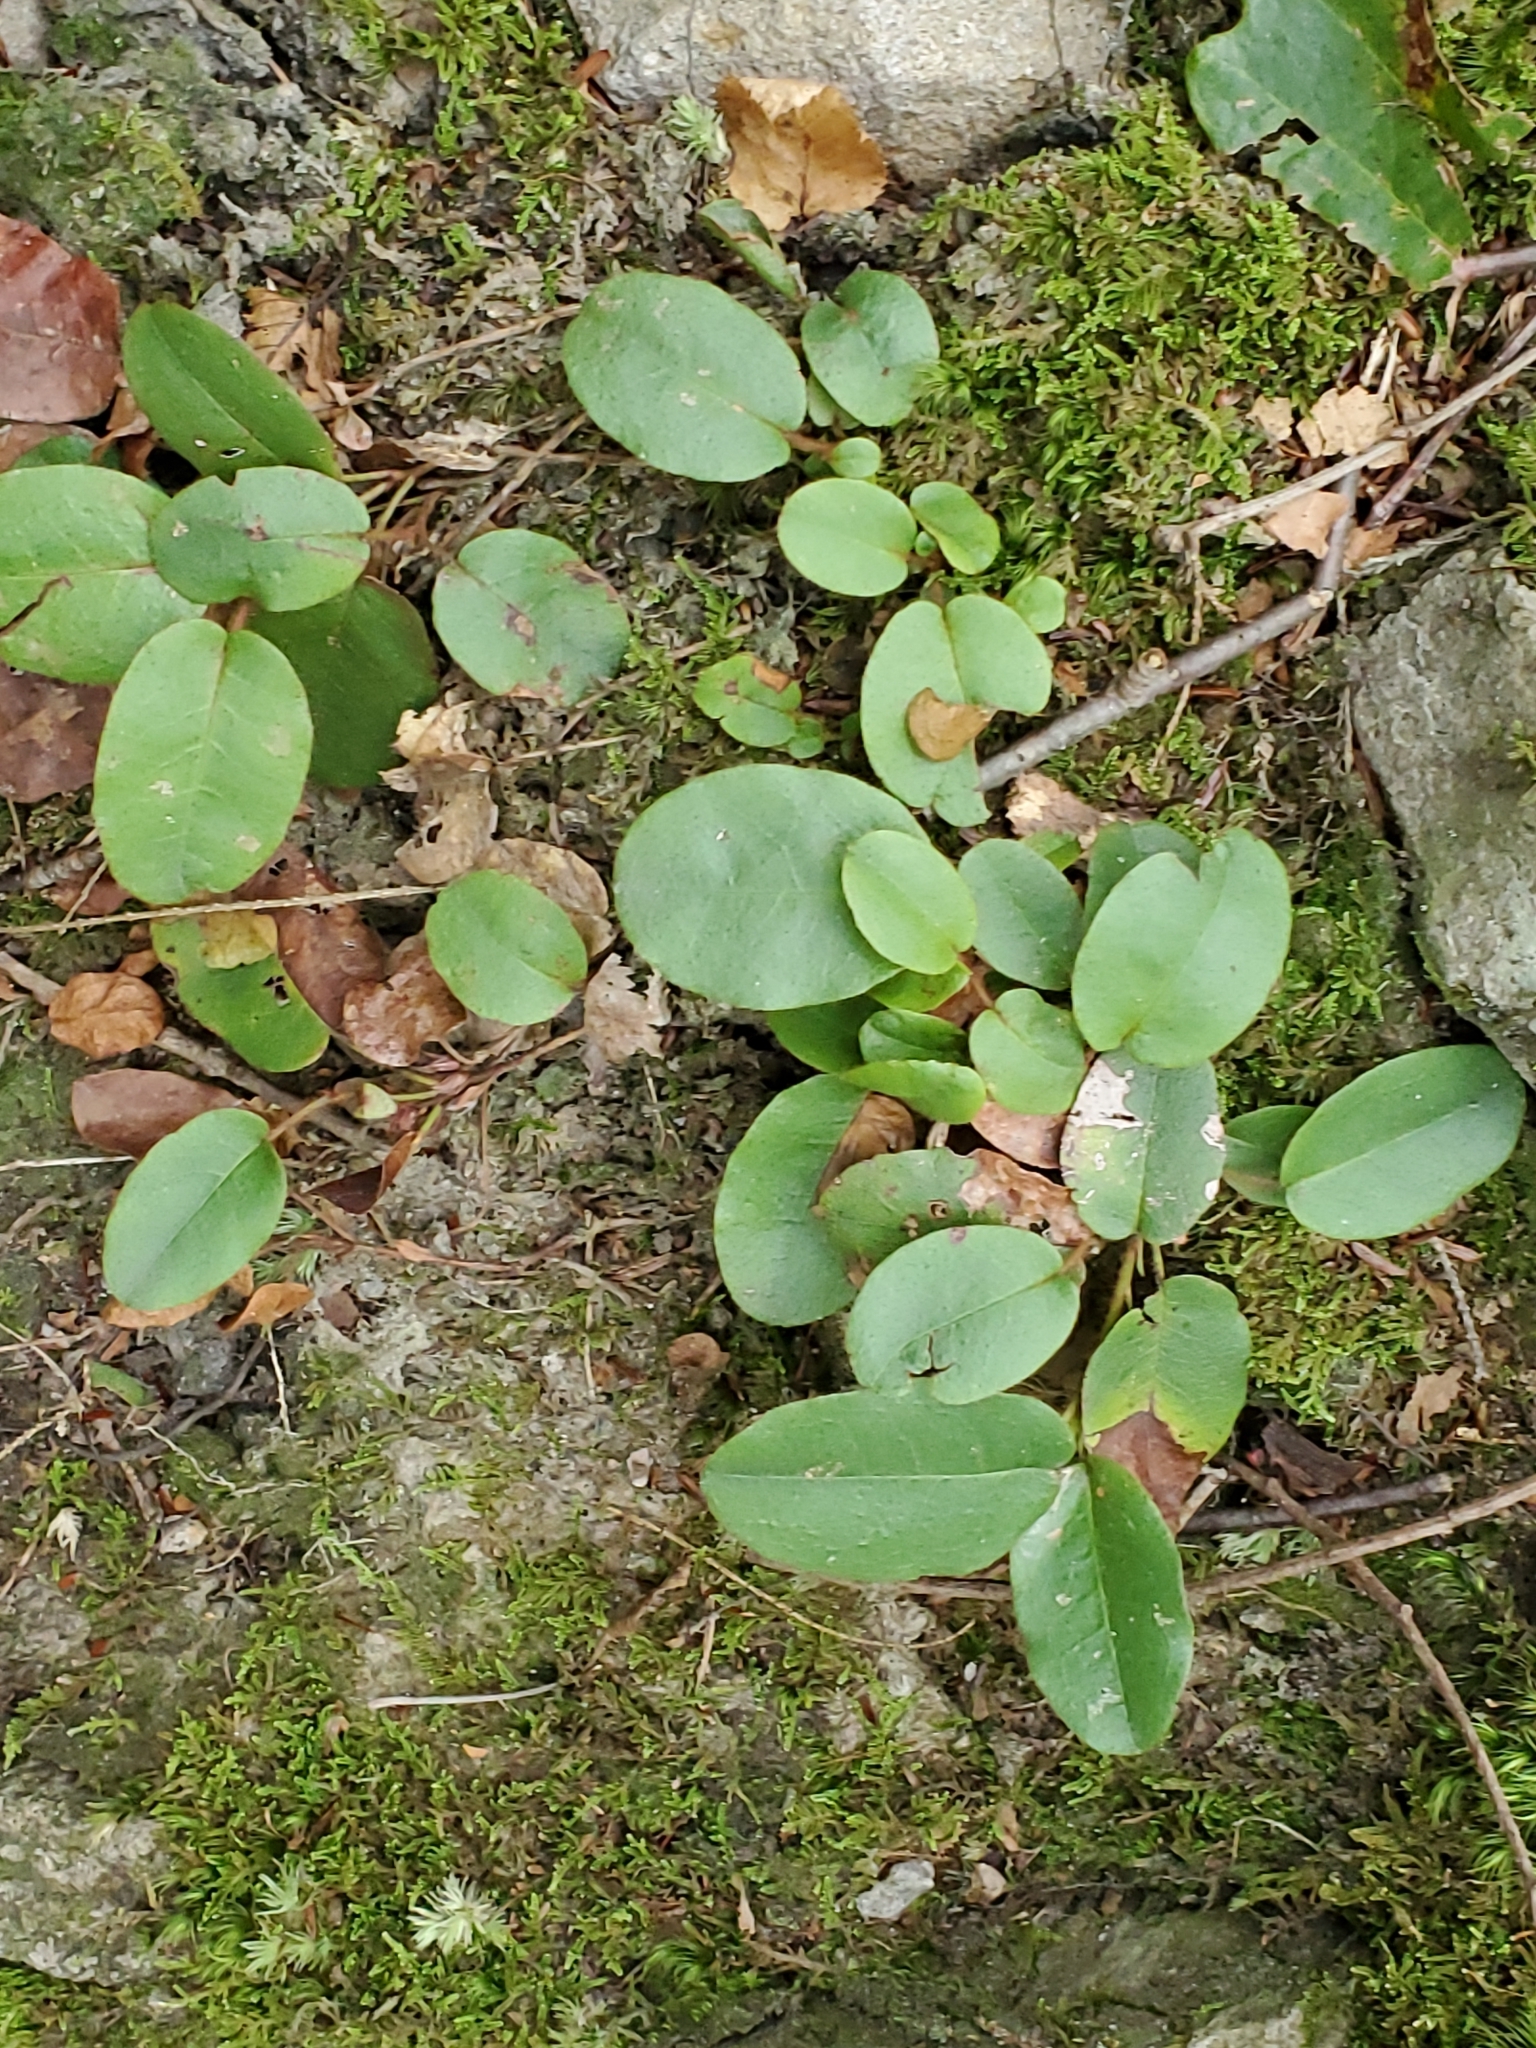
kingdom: Plantae
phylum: Tracheophyta
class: Magnoliopsida
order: Ericales
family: Ericaceae
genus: Epigaea
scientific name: Epigaea repens
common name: Gravelroot
